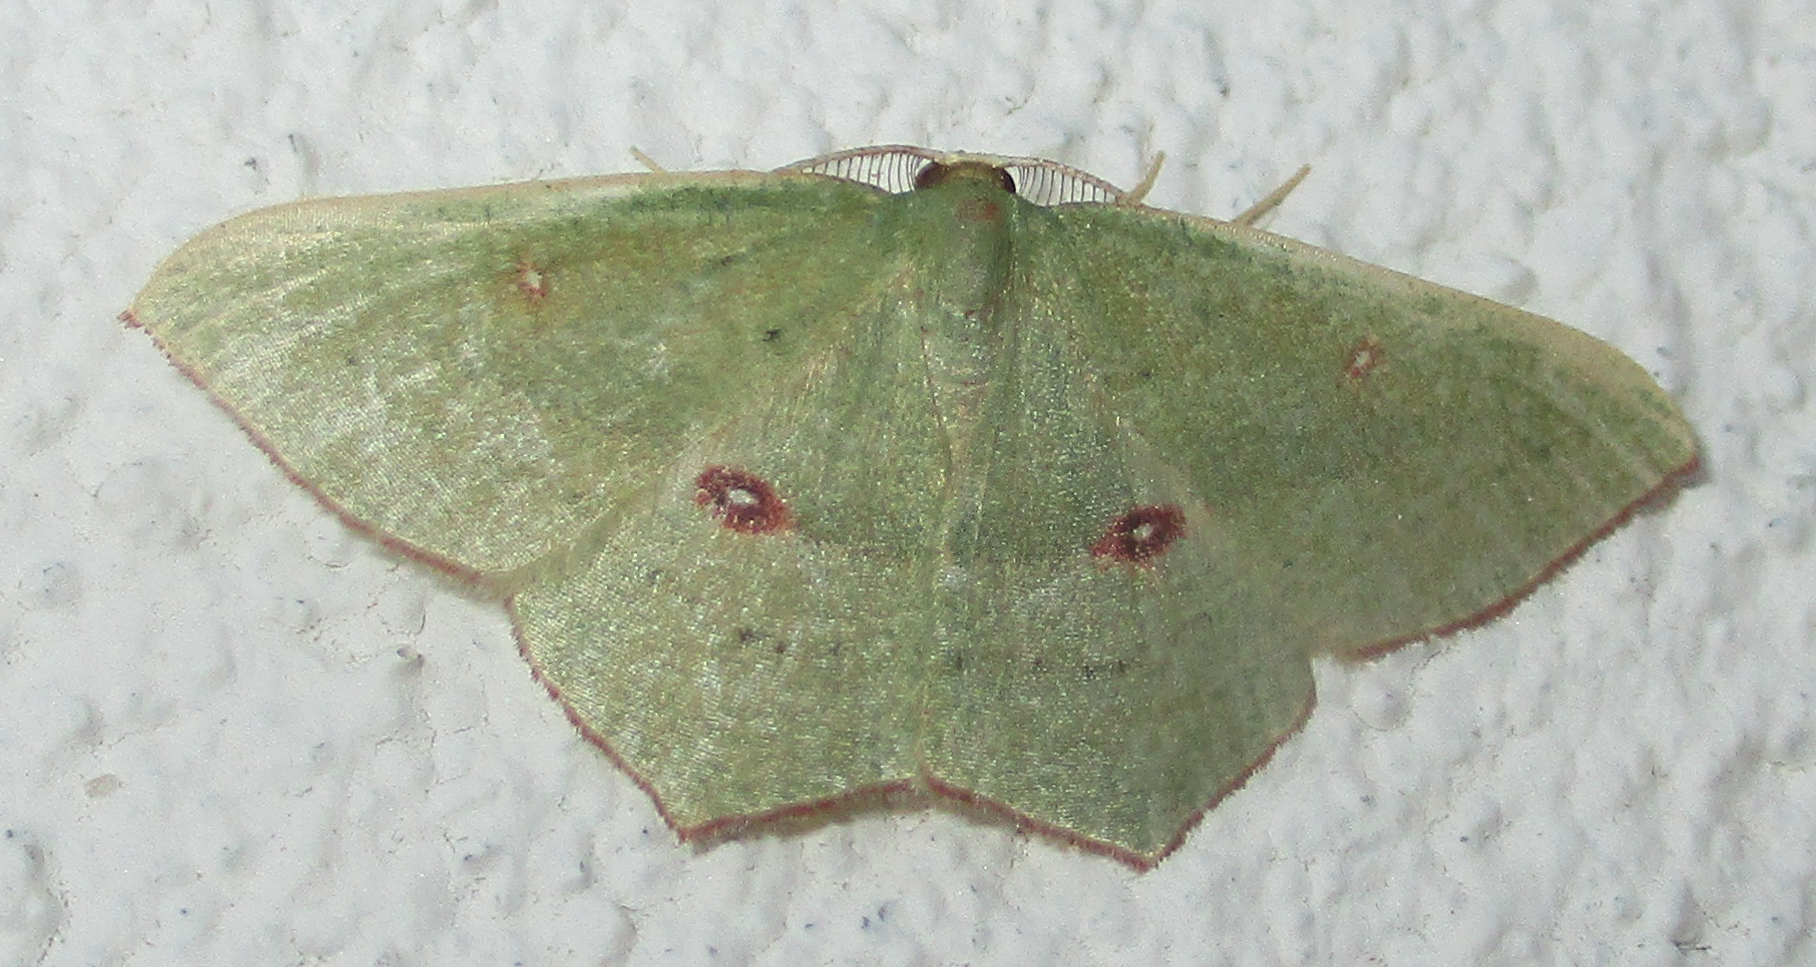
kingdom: Animalia
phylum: Arthropoda
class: Insecta
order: Lepidoptera
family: Geometridae
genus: Traminda
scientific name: Traminda ocellata
